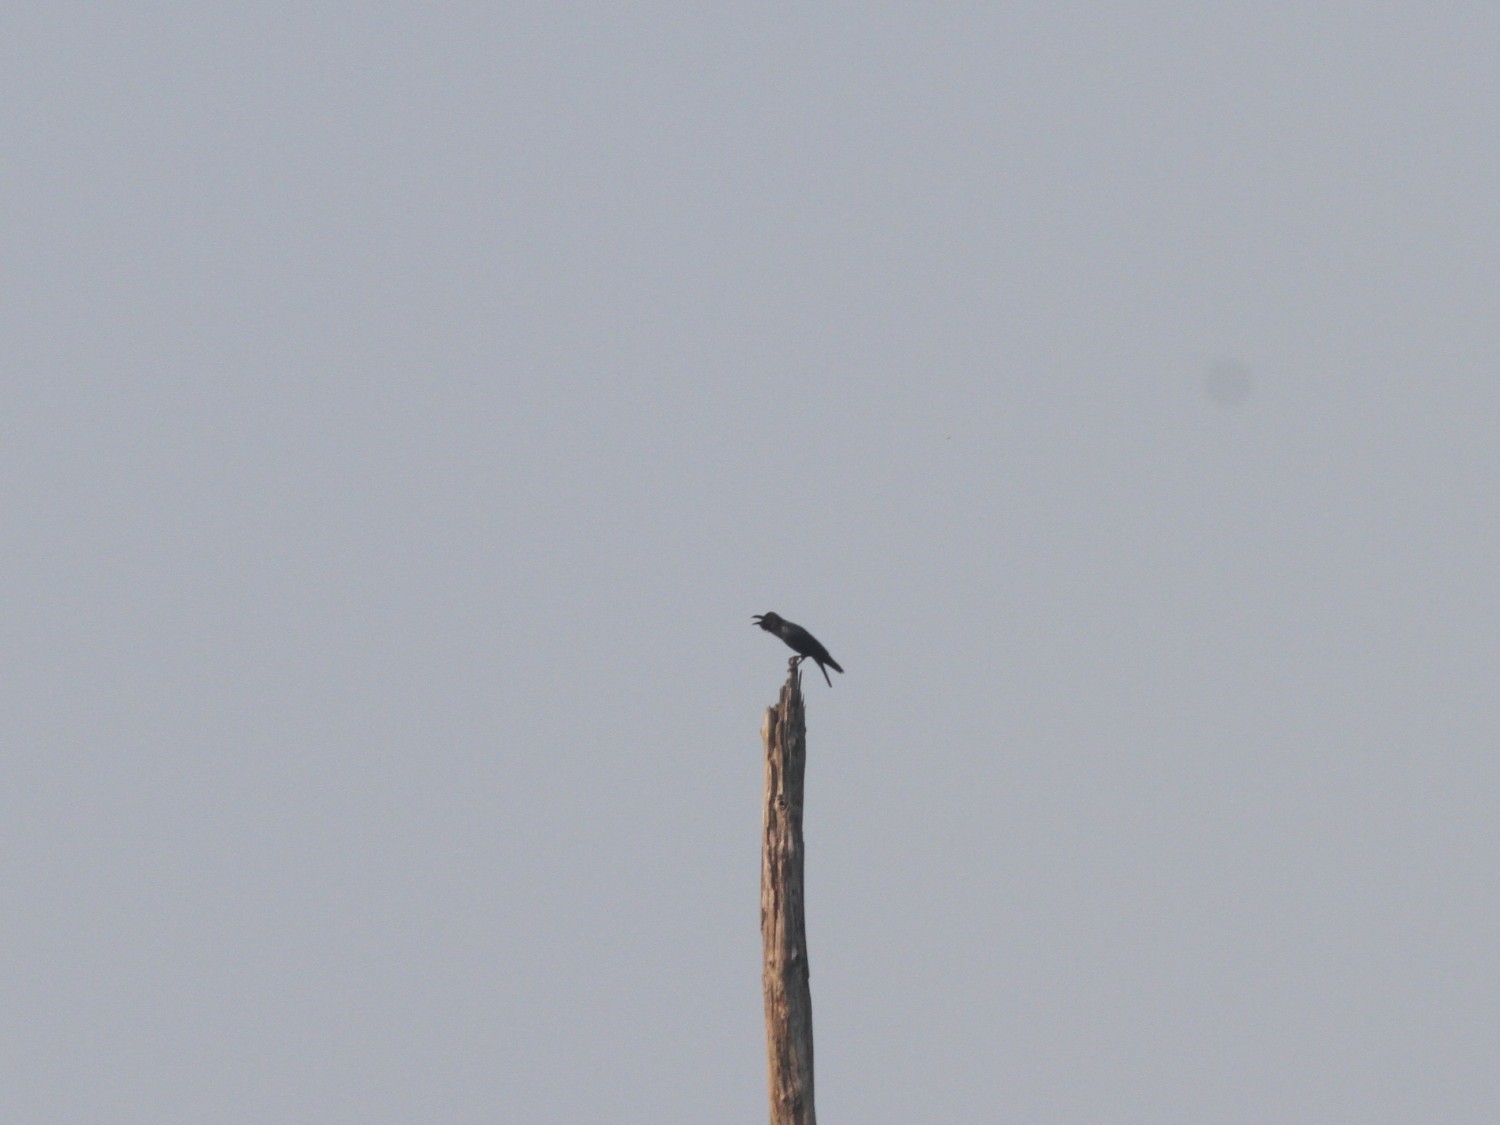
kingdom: Animalia
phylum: Chordata
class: Aves
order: Passeriformes
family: Corvidae
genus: Corvus
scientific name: Corvus macrorhynchos
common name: Large-billed crow
